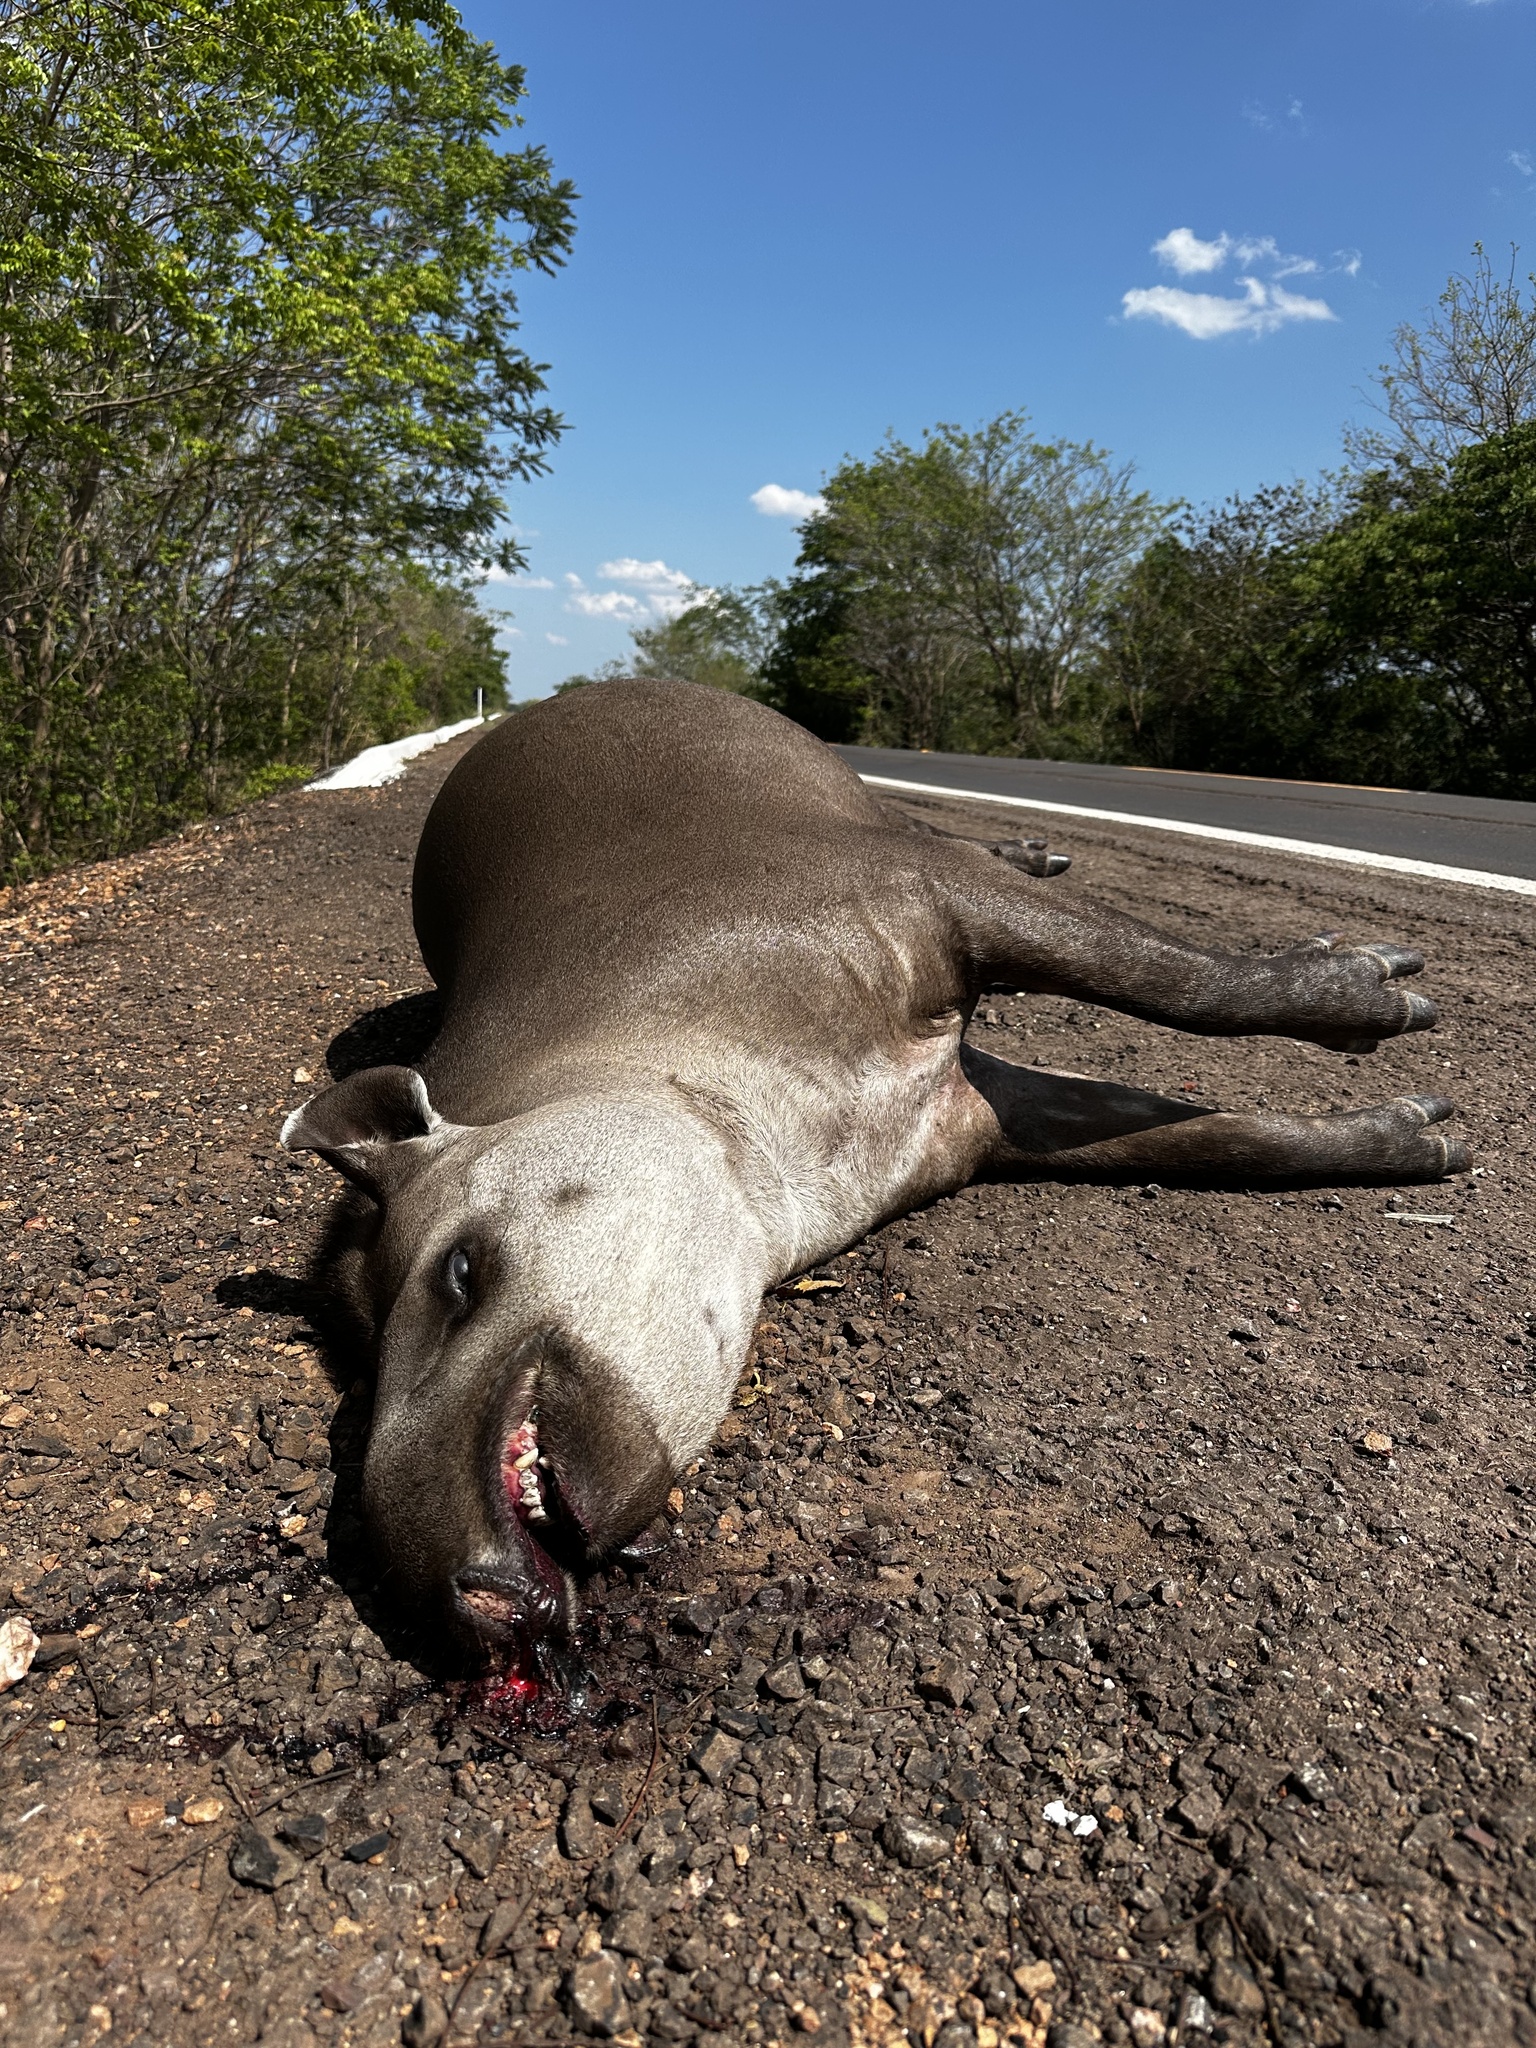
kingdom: Animalia
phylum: Chordata
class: Mammalia
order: Perissodactyla
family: Tapiridae
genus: Tapirus
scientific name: Tapirus terrestris
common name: Brazilian tapir
